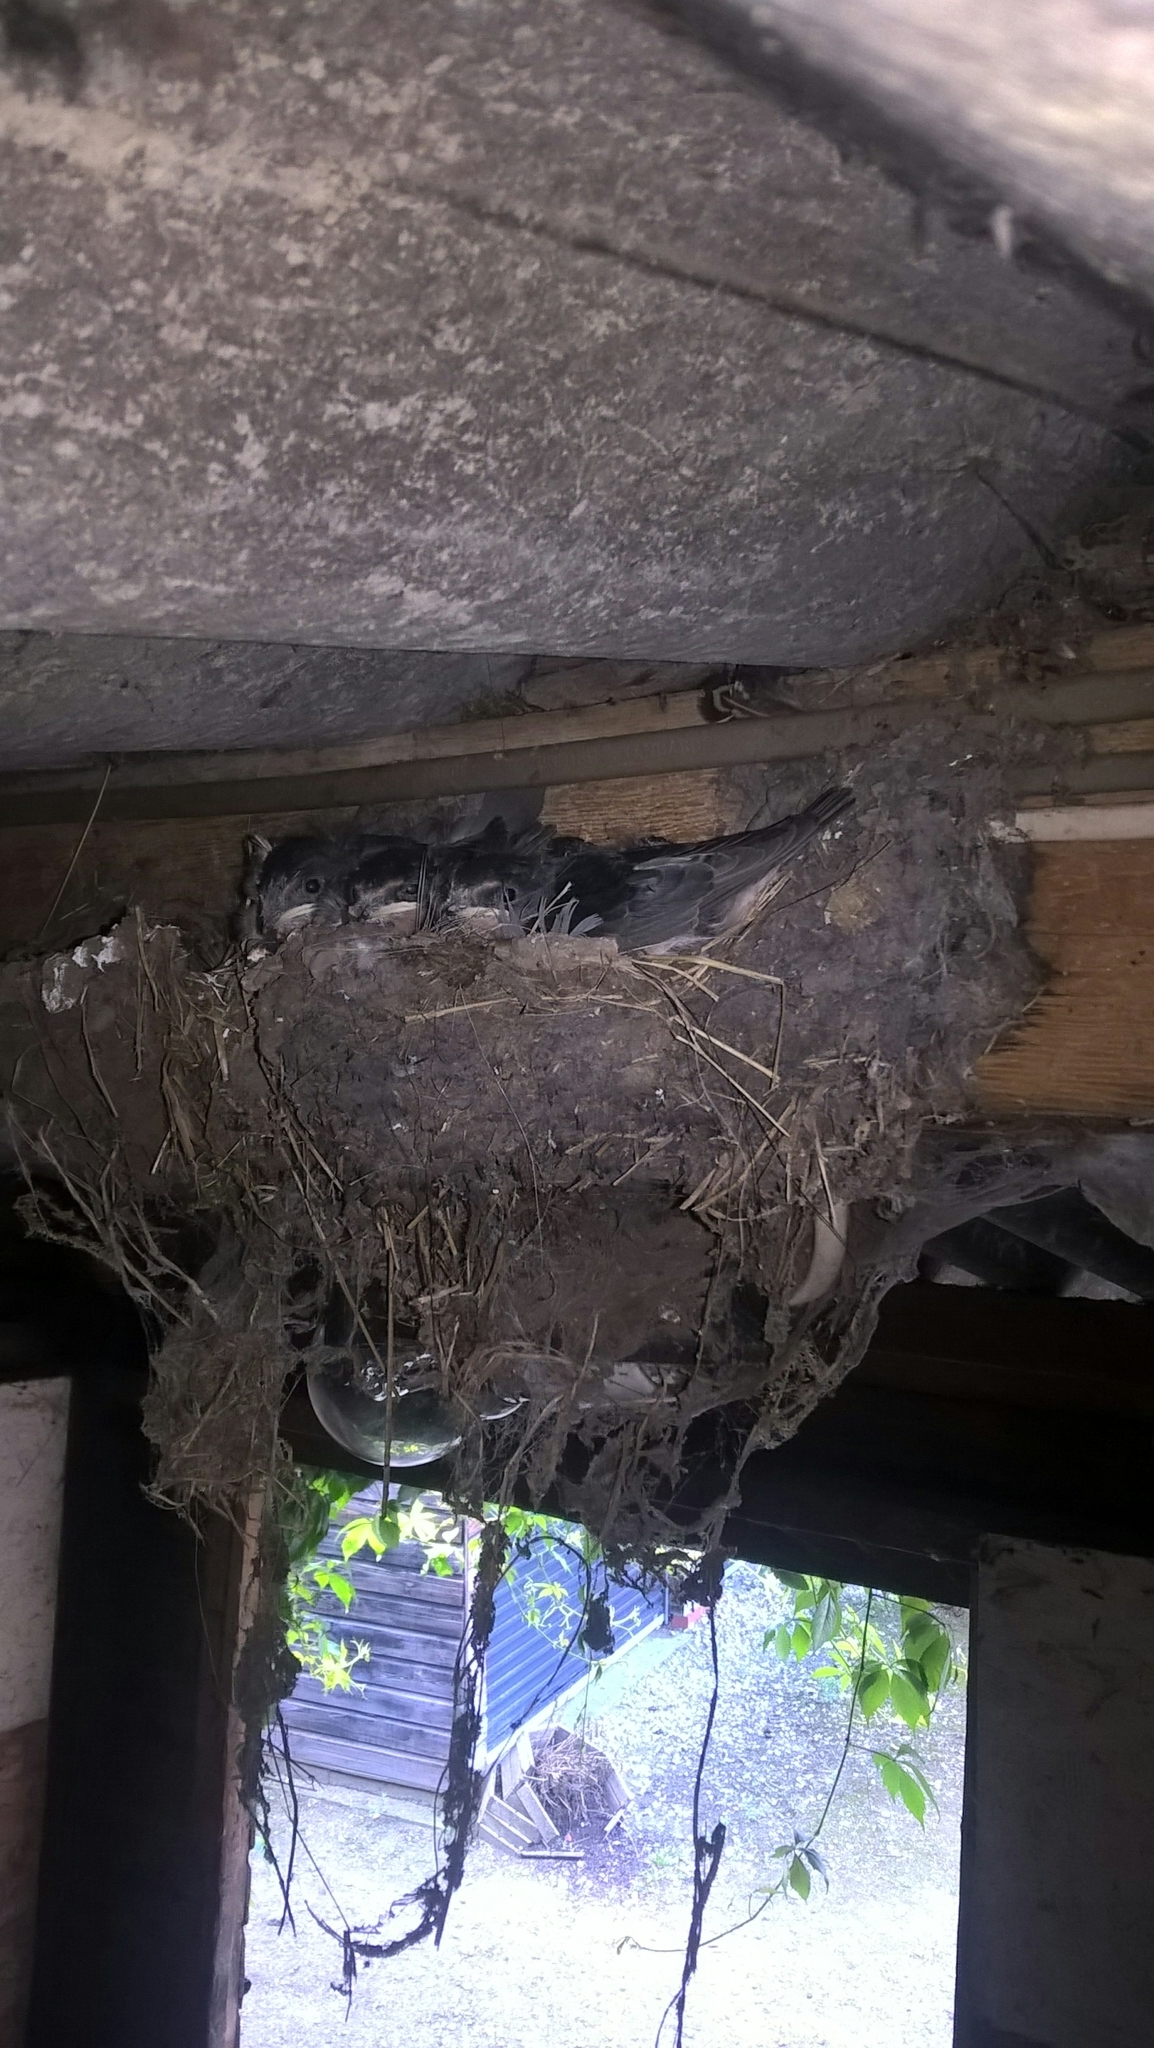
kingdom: Animalia
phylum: Chordata
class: Aves
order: Passeriformes
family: Hirundinidae
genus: Hirundo
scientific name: Hirundo rustica
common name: Barn swallow
